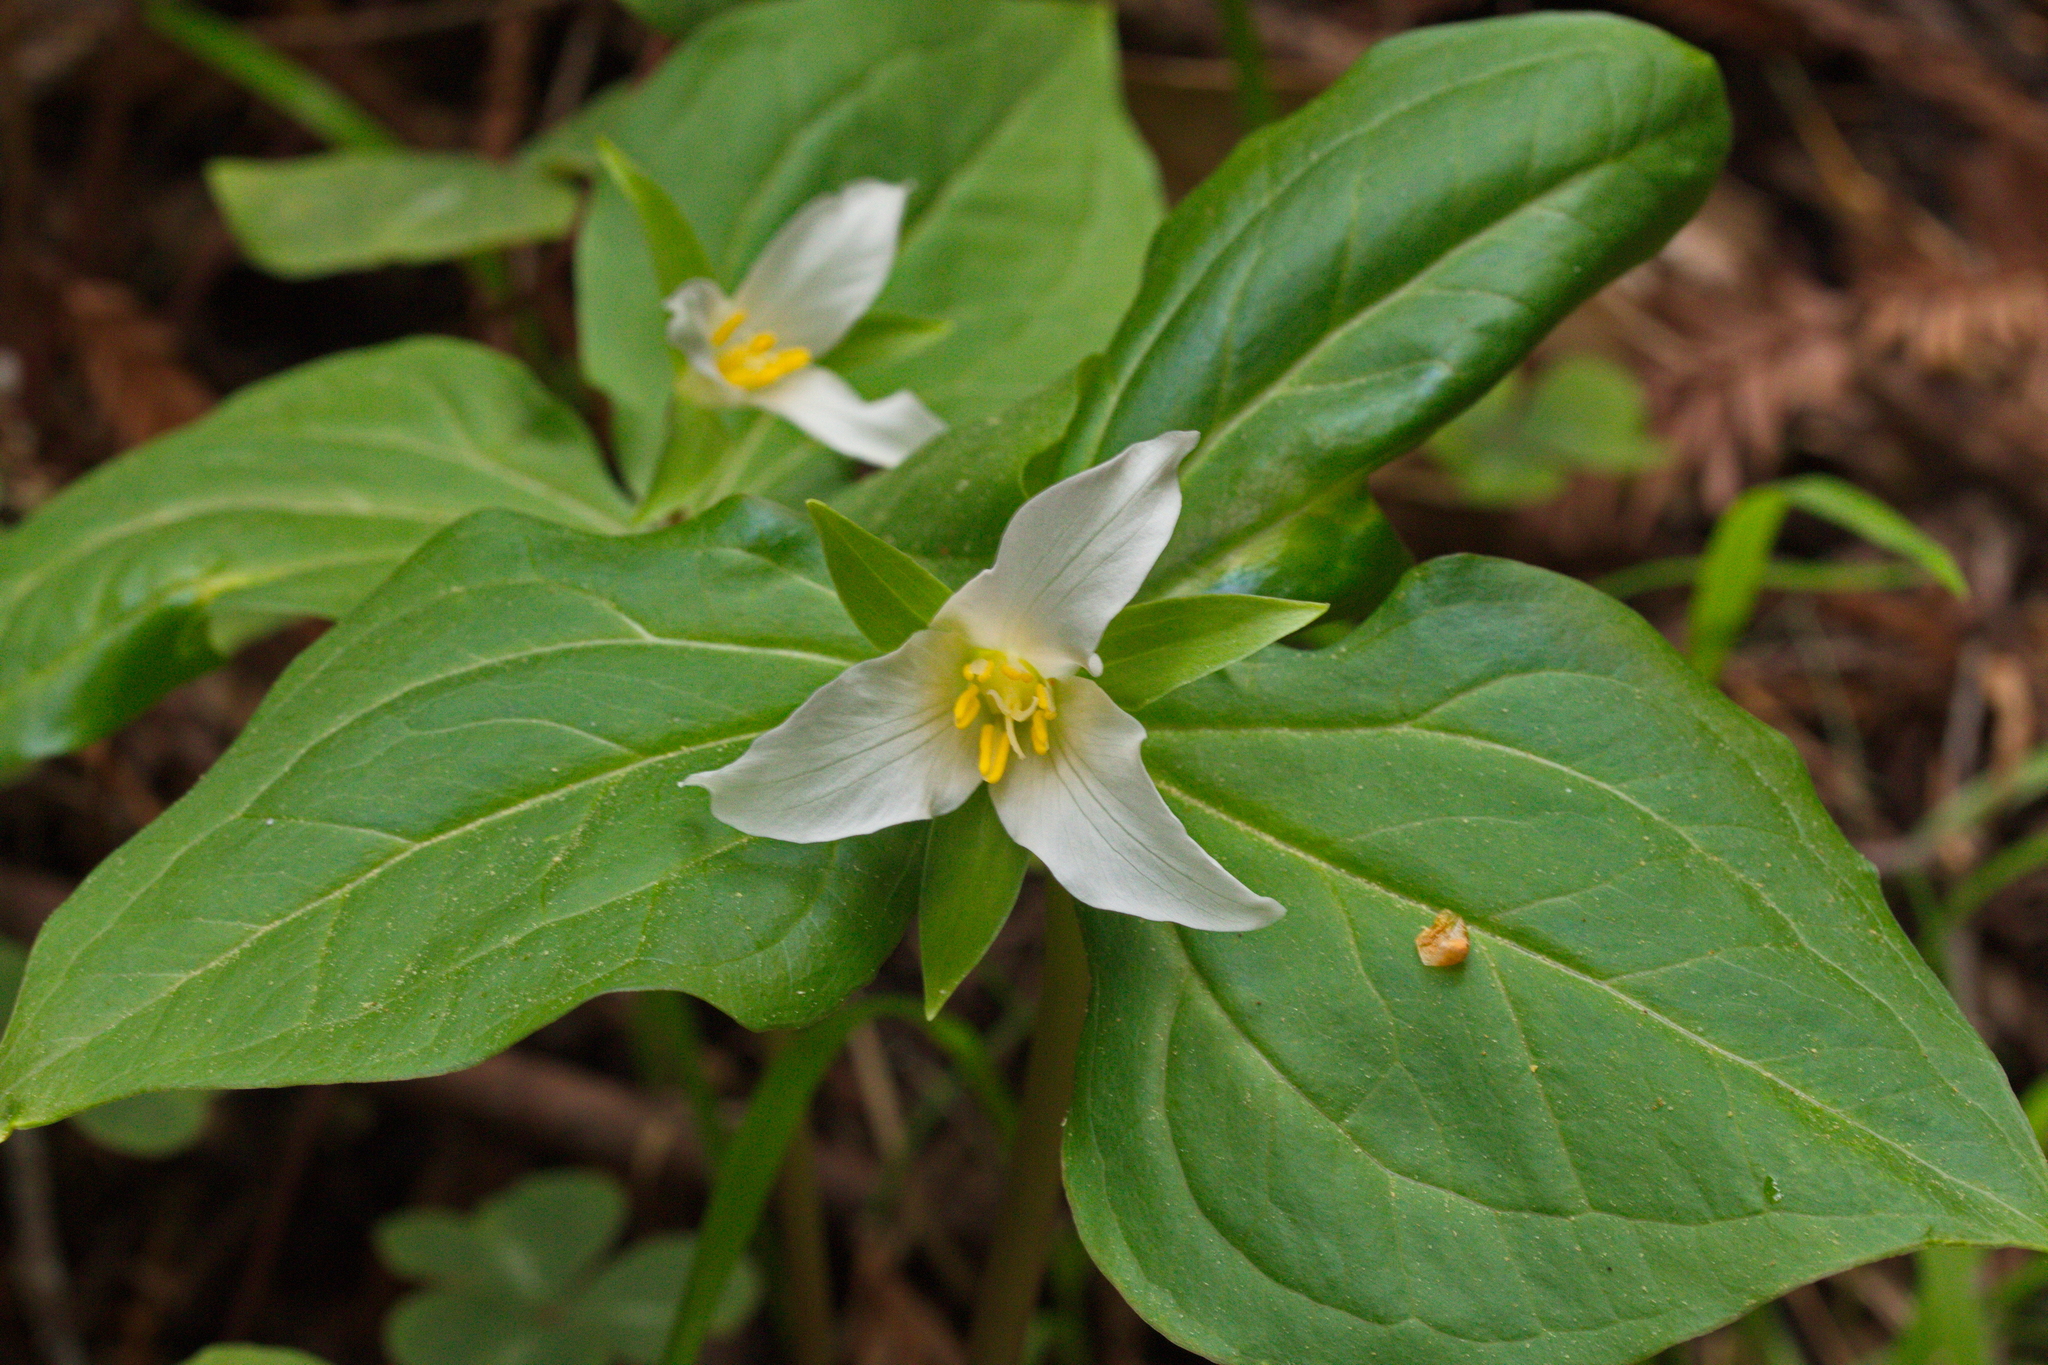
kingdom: Plantae
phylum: Tracheophyta
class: Liliopsida
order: Liliales
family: Melanthiaceae
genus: Trillium
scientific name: Trillium ovatum
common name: Pacific trillium
